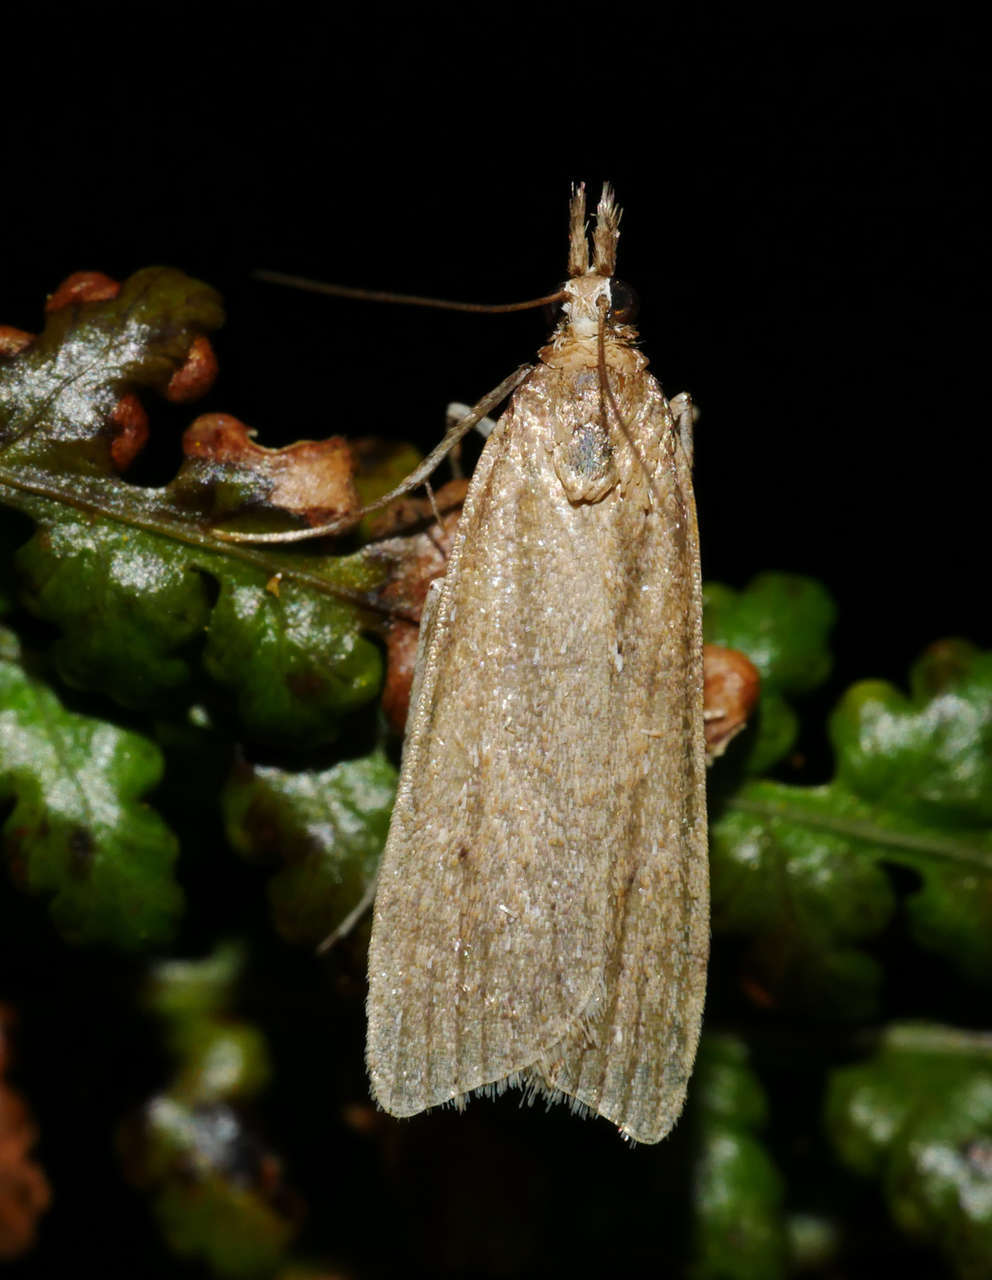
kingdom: Animalia
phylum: Arthropoda
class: Insecta
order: Lepidoptera
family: Crambidae
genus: Calamotropha
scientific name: Calamotropha paludella
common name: Bulrush veneer
